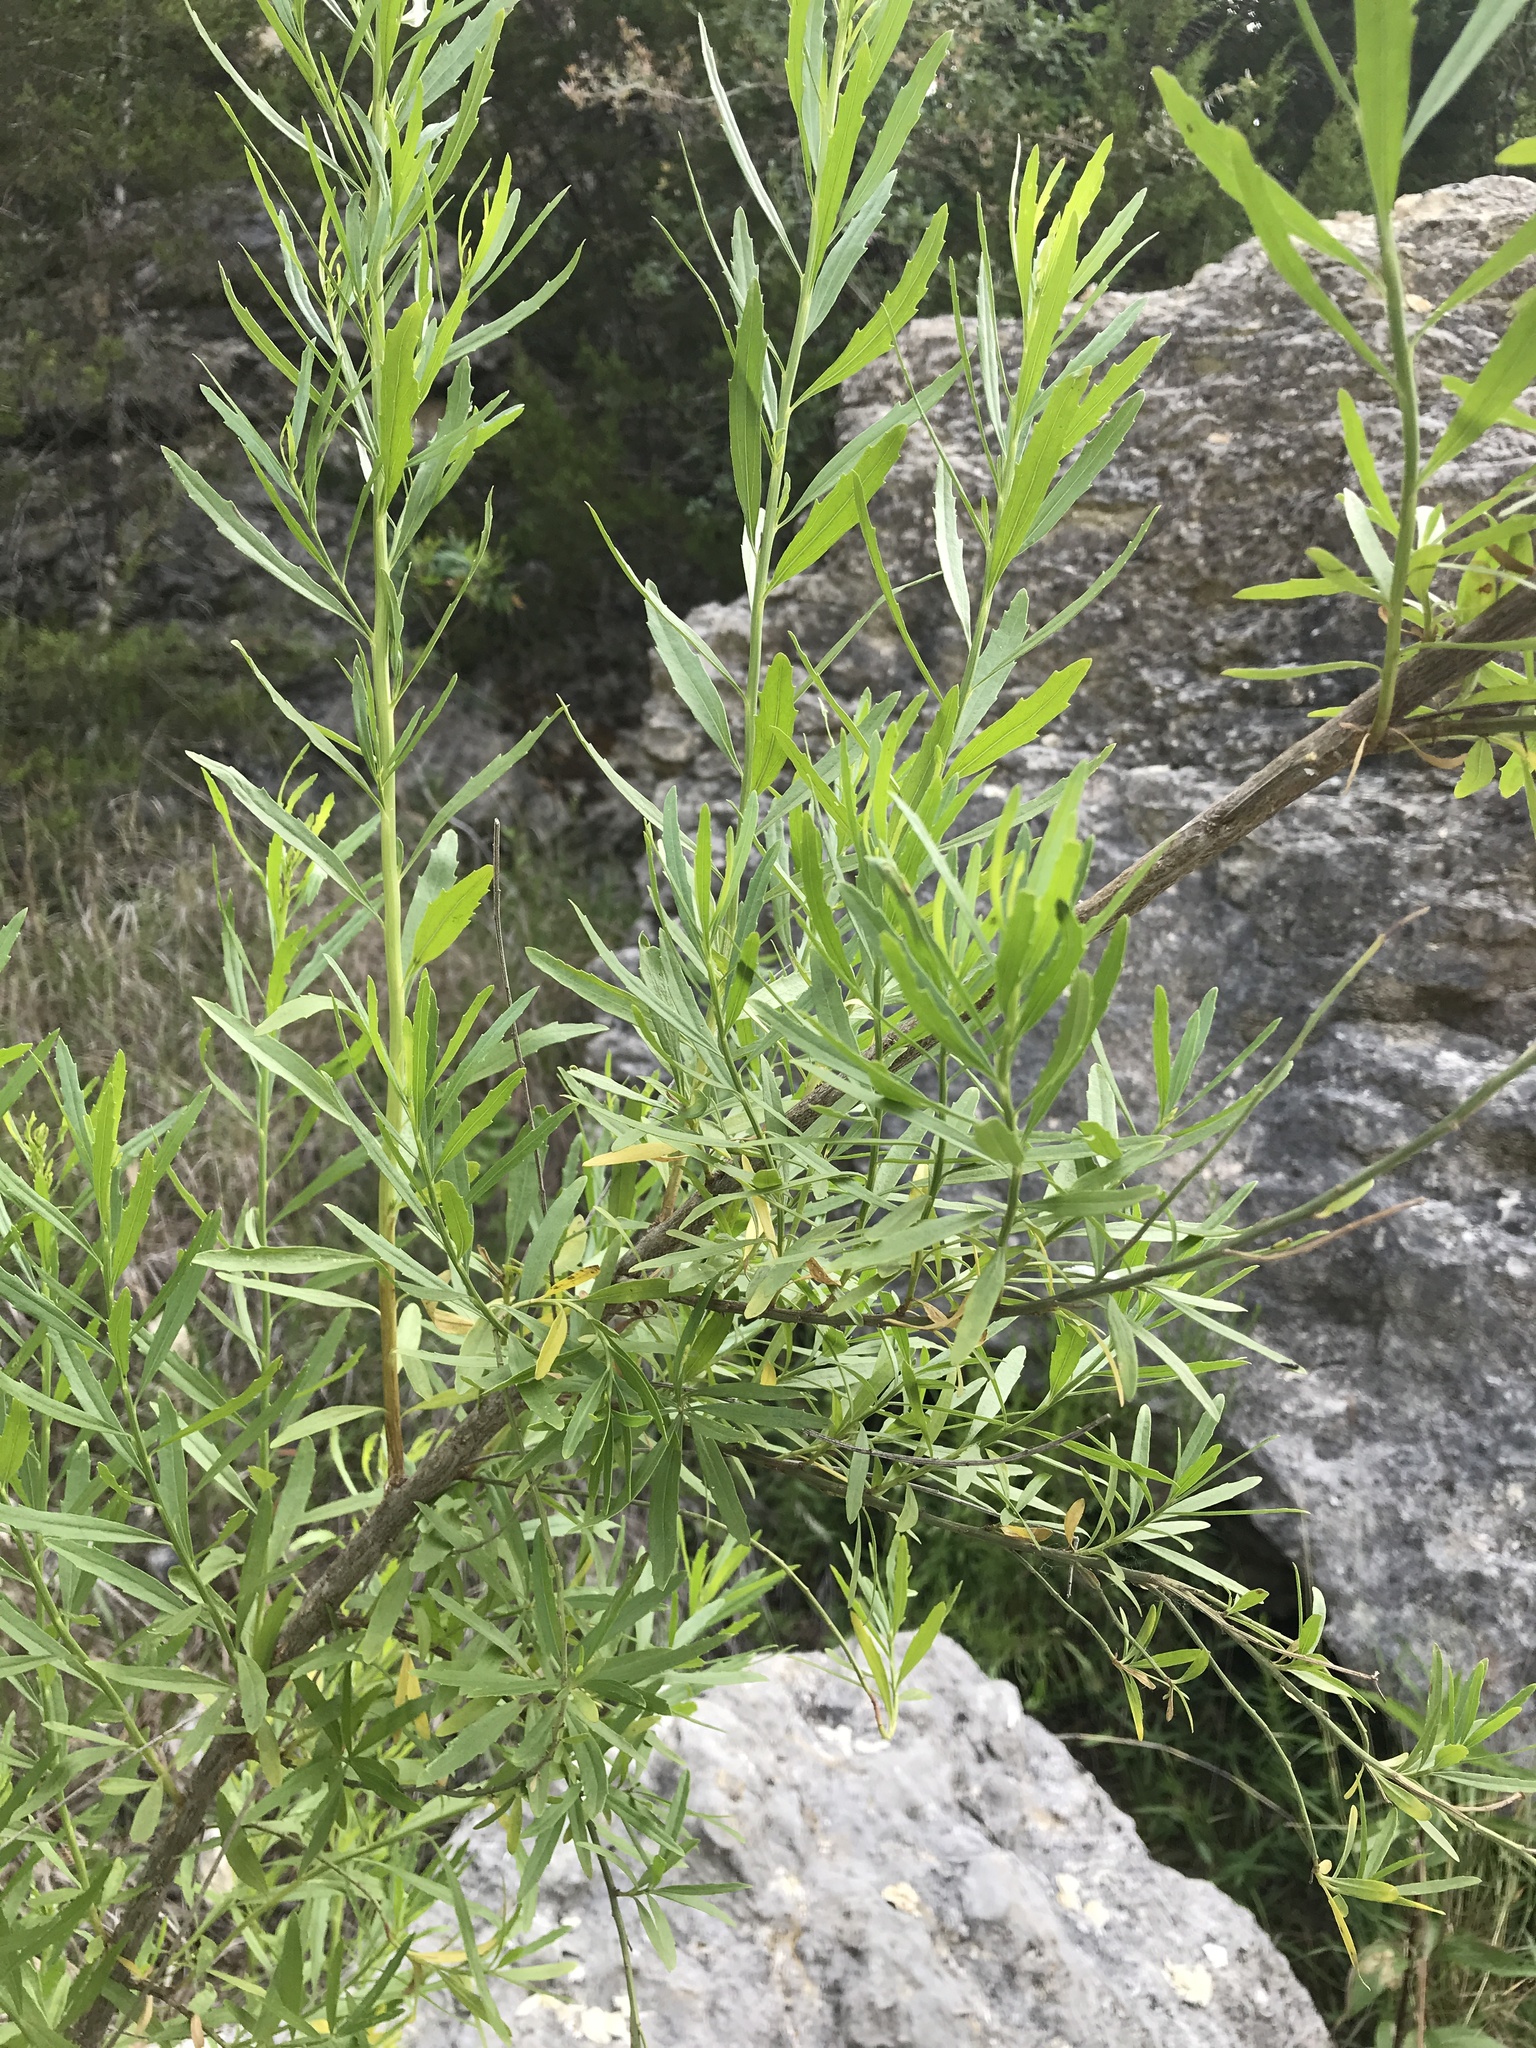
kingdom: Plantae
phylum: Tracheophyta
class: Magnoliopsida
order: Asterales
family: Asteraceae
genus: Baccharis
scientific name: Baccharis neglecta
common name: Roosevelt-weed
